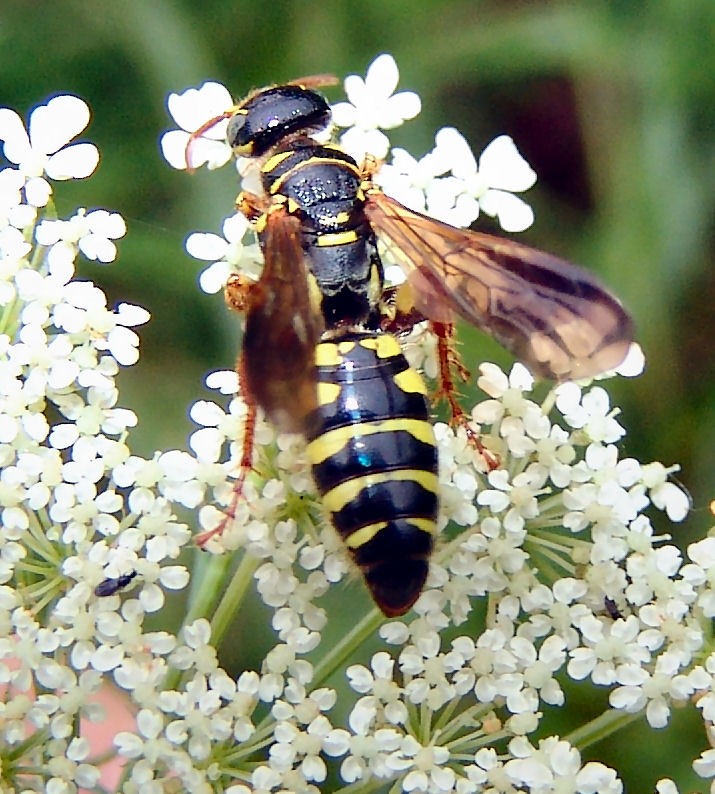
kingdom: Animalia
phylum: Arthropoda
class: Insecta
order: Hymenoptera
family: Tiphiidae
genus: Myzinum
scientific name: Myzinum quinquecinctum
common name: Five-banded thynnid wasp
